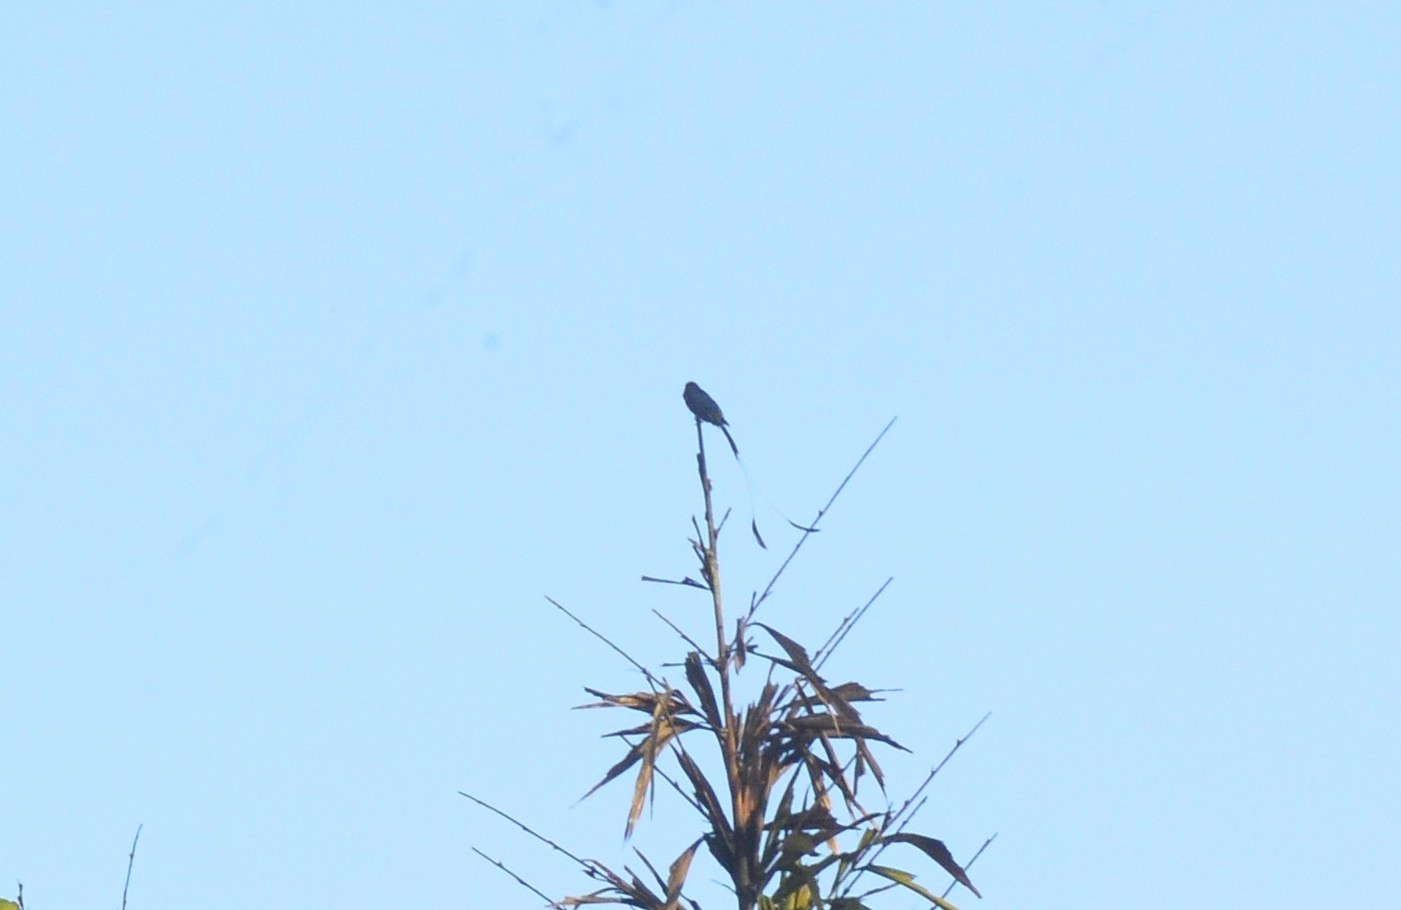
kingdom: Animalia
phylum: Chordata
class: Aves
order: Passeriformes
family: Dicruridae
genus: Dicrurus
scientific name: Dicrurus paradiseus
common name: Greater racket-tailed drongo
